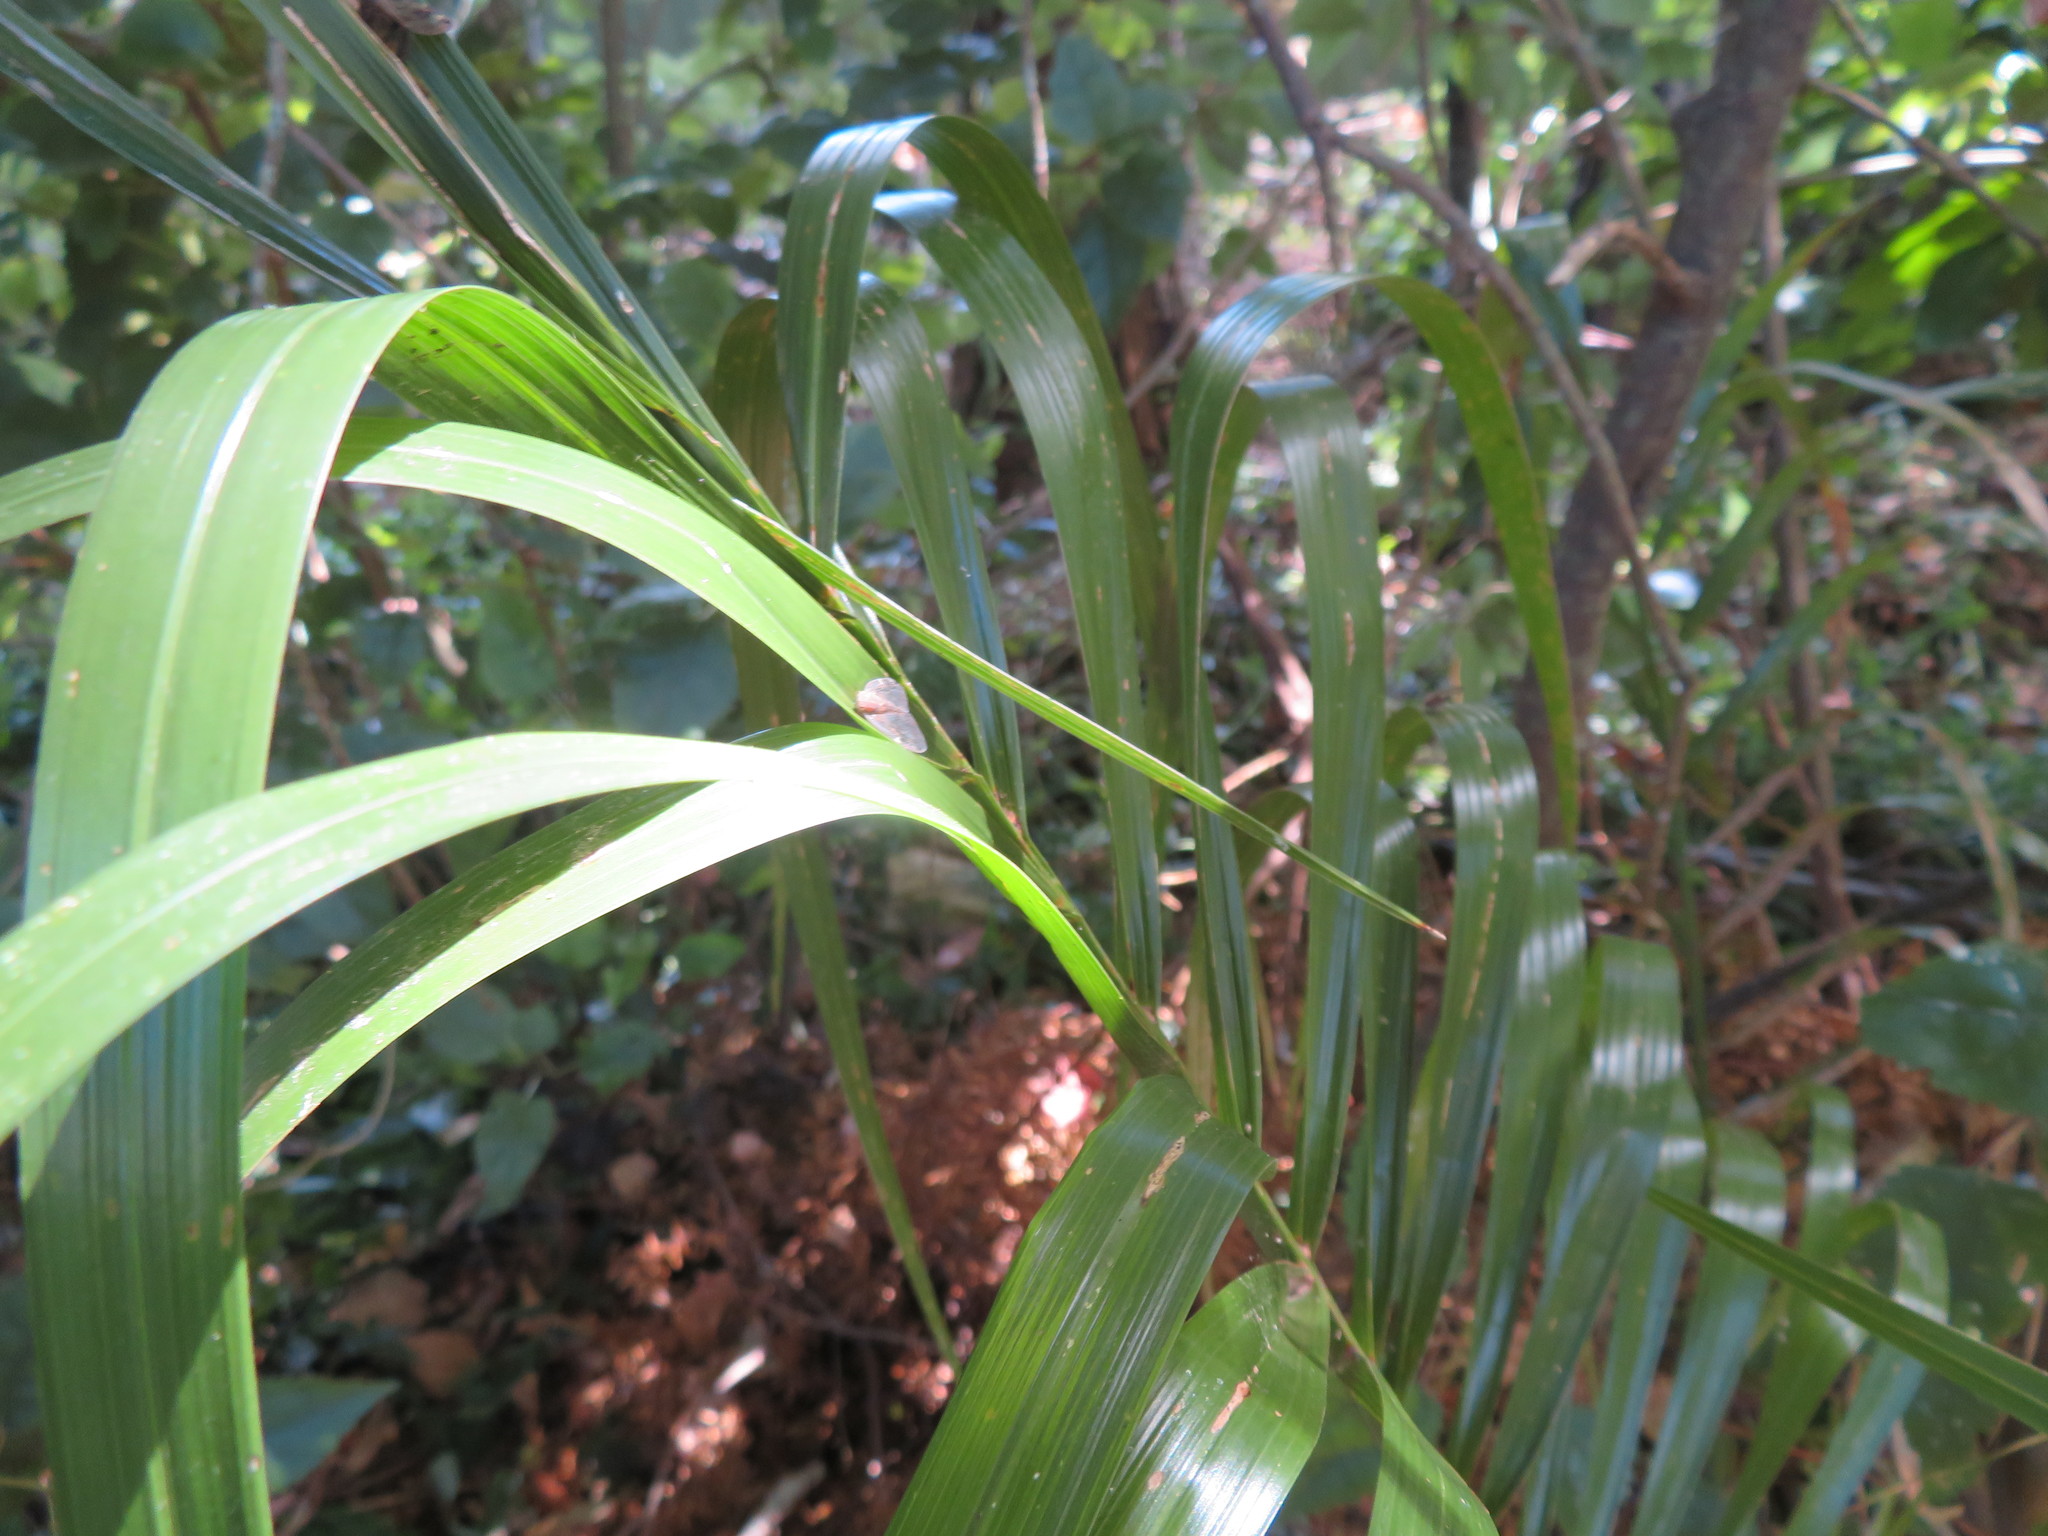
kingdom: Plantae
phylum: Tracheophyta
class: Liliopsida
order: Arecales
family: Arecaceae
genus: Phoenix
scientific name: Phoenix canariensis
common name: Canary island date palm
